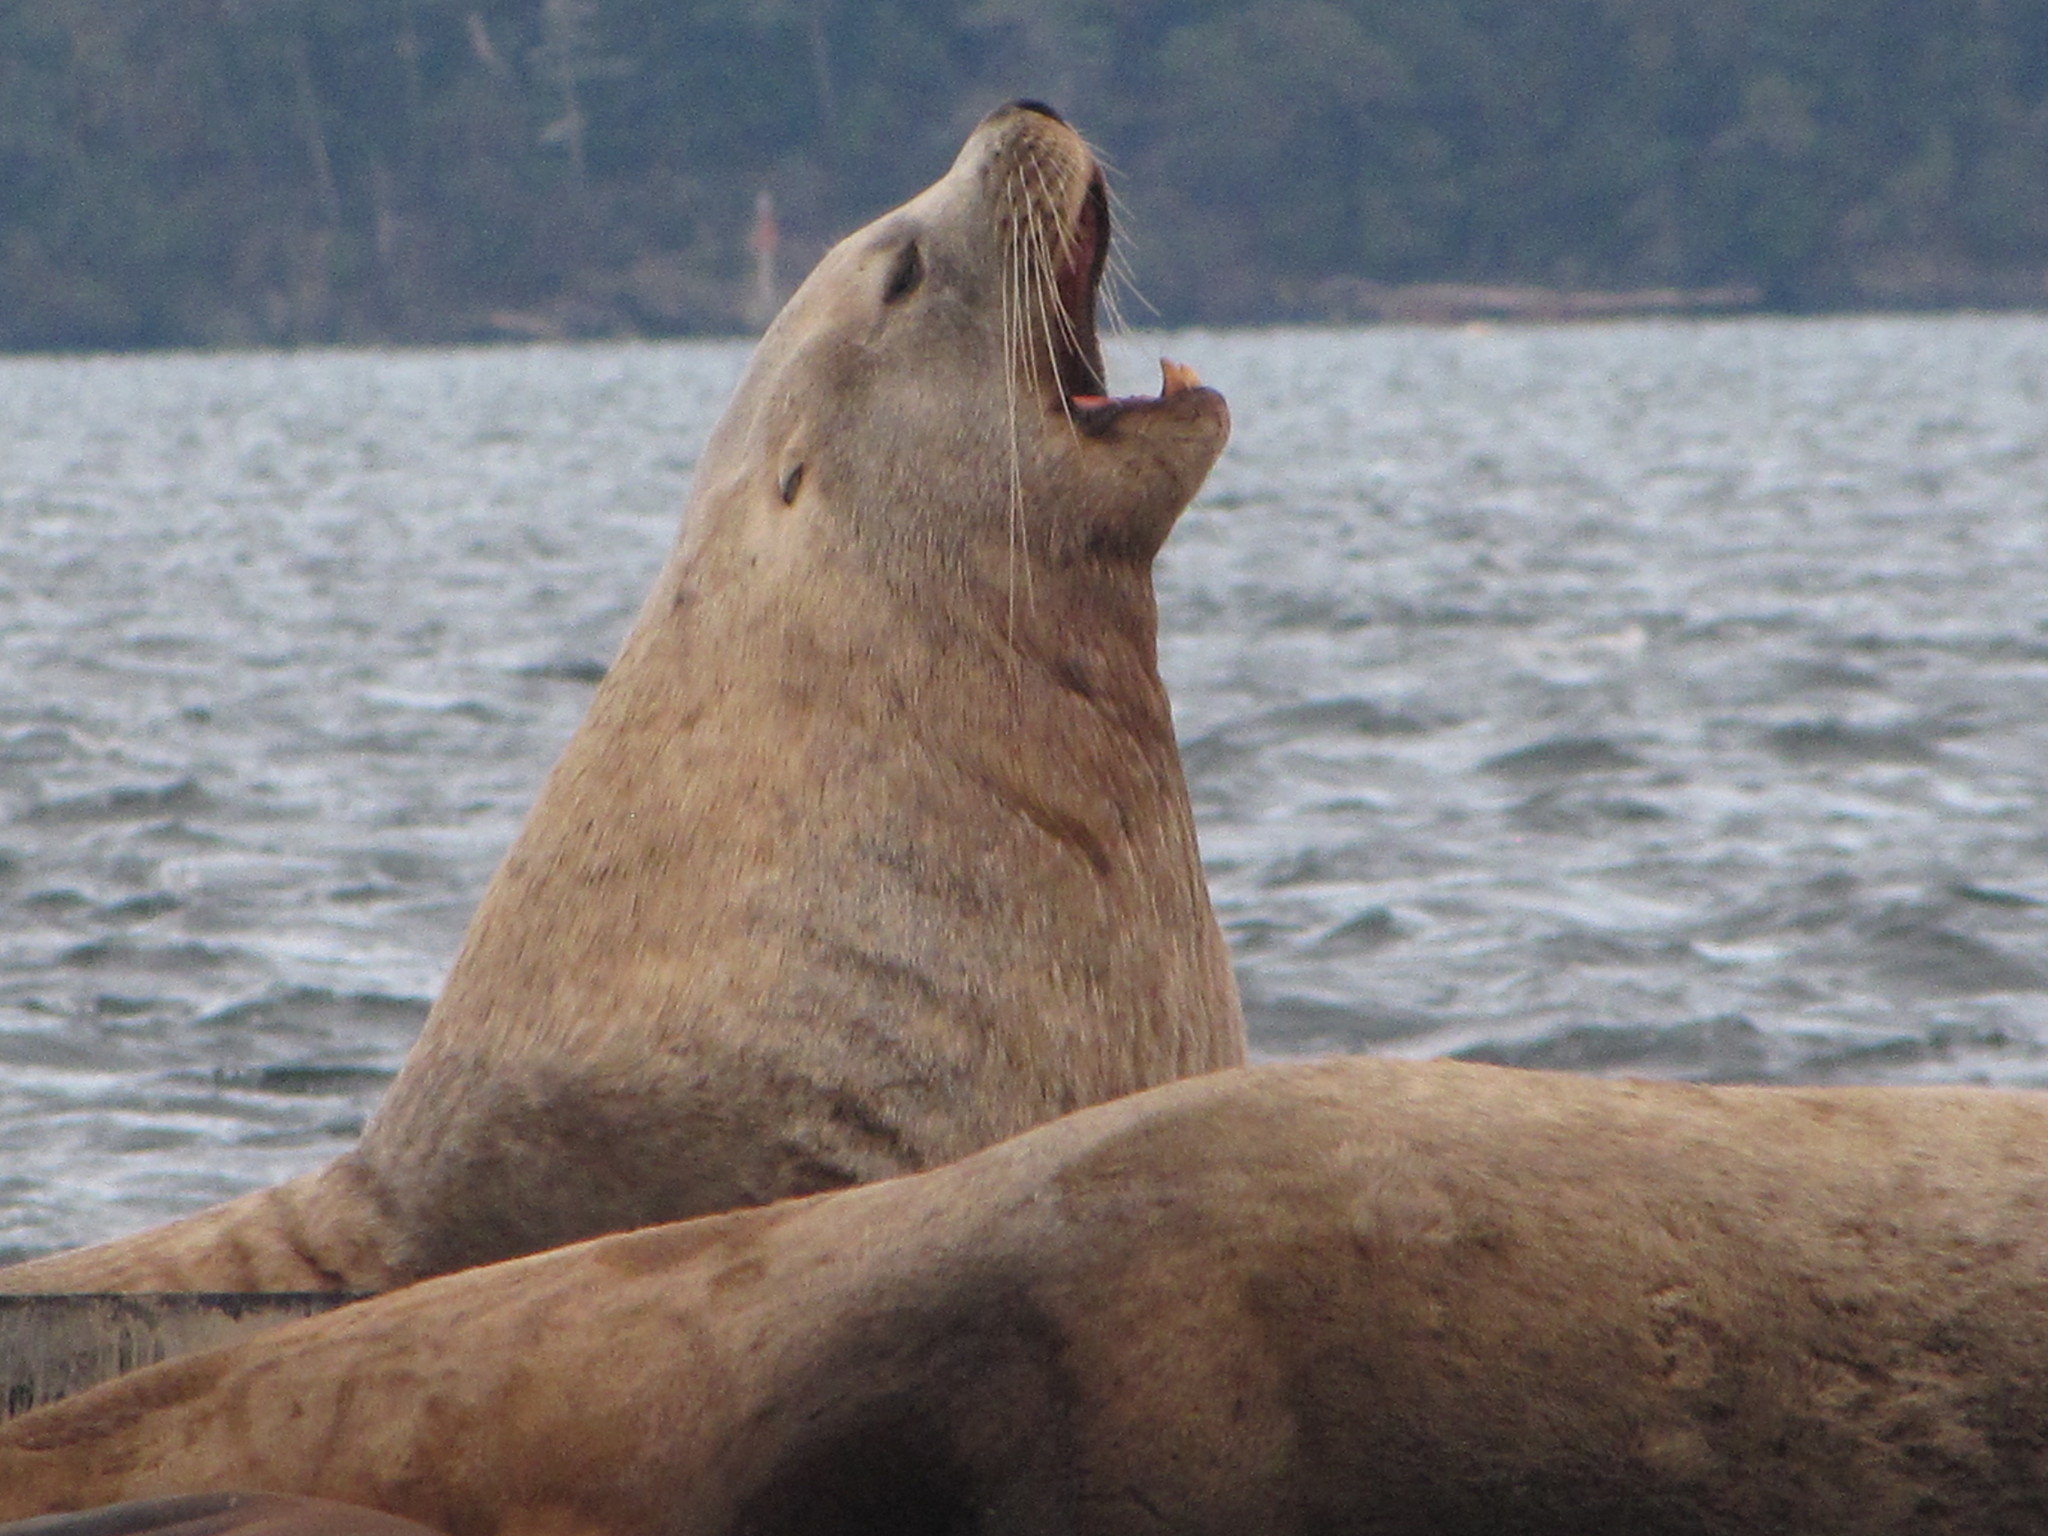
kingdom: Animalia
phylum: Chordata
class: Mammalia
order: Carnivora
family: Otariidae
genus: Eumetopias
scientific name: Eumetopias jubatus
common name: Steller sea lion
